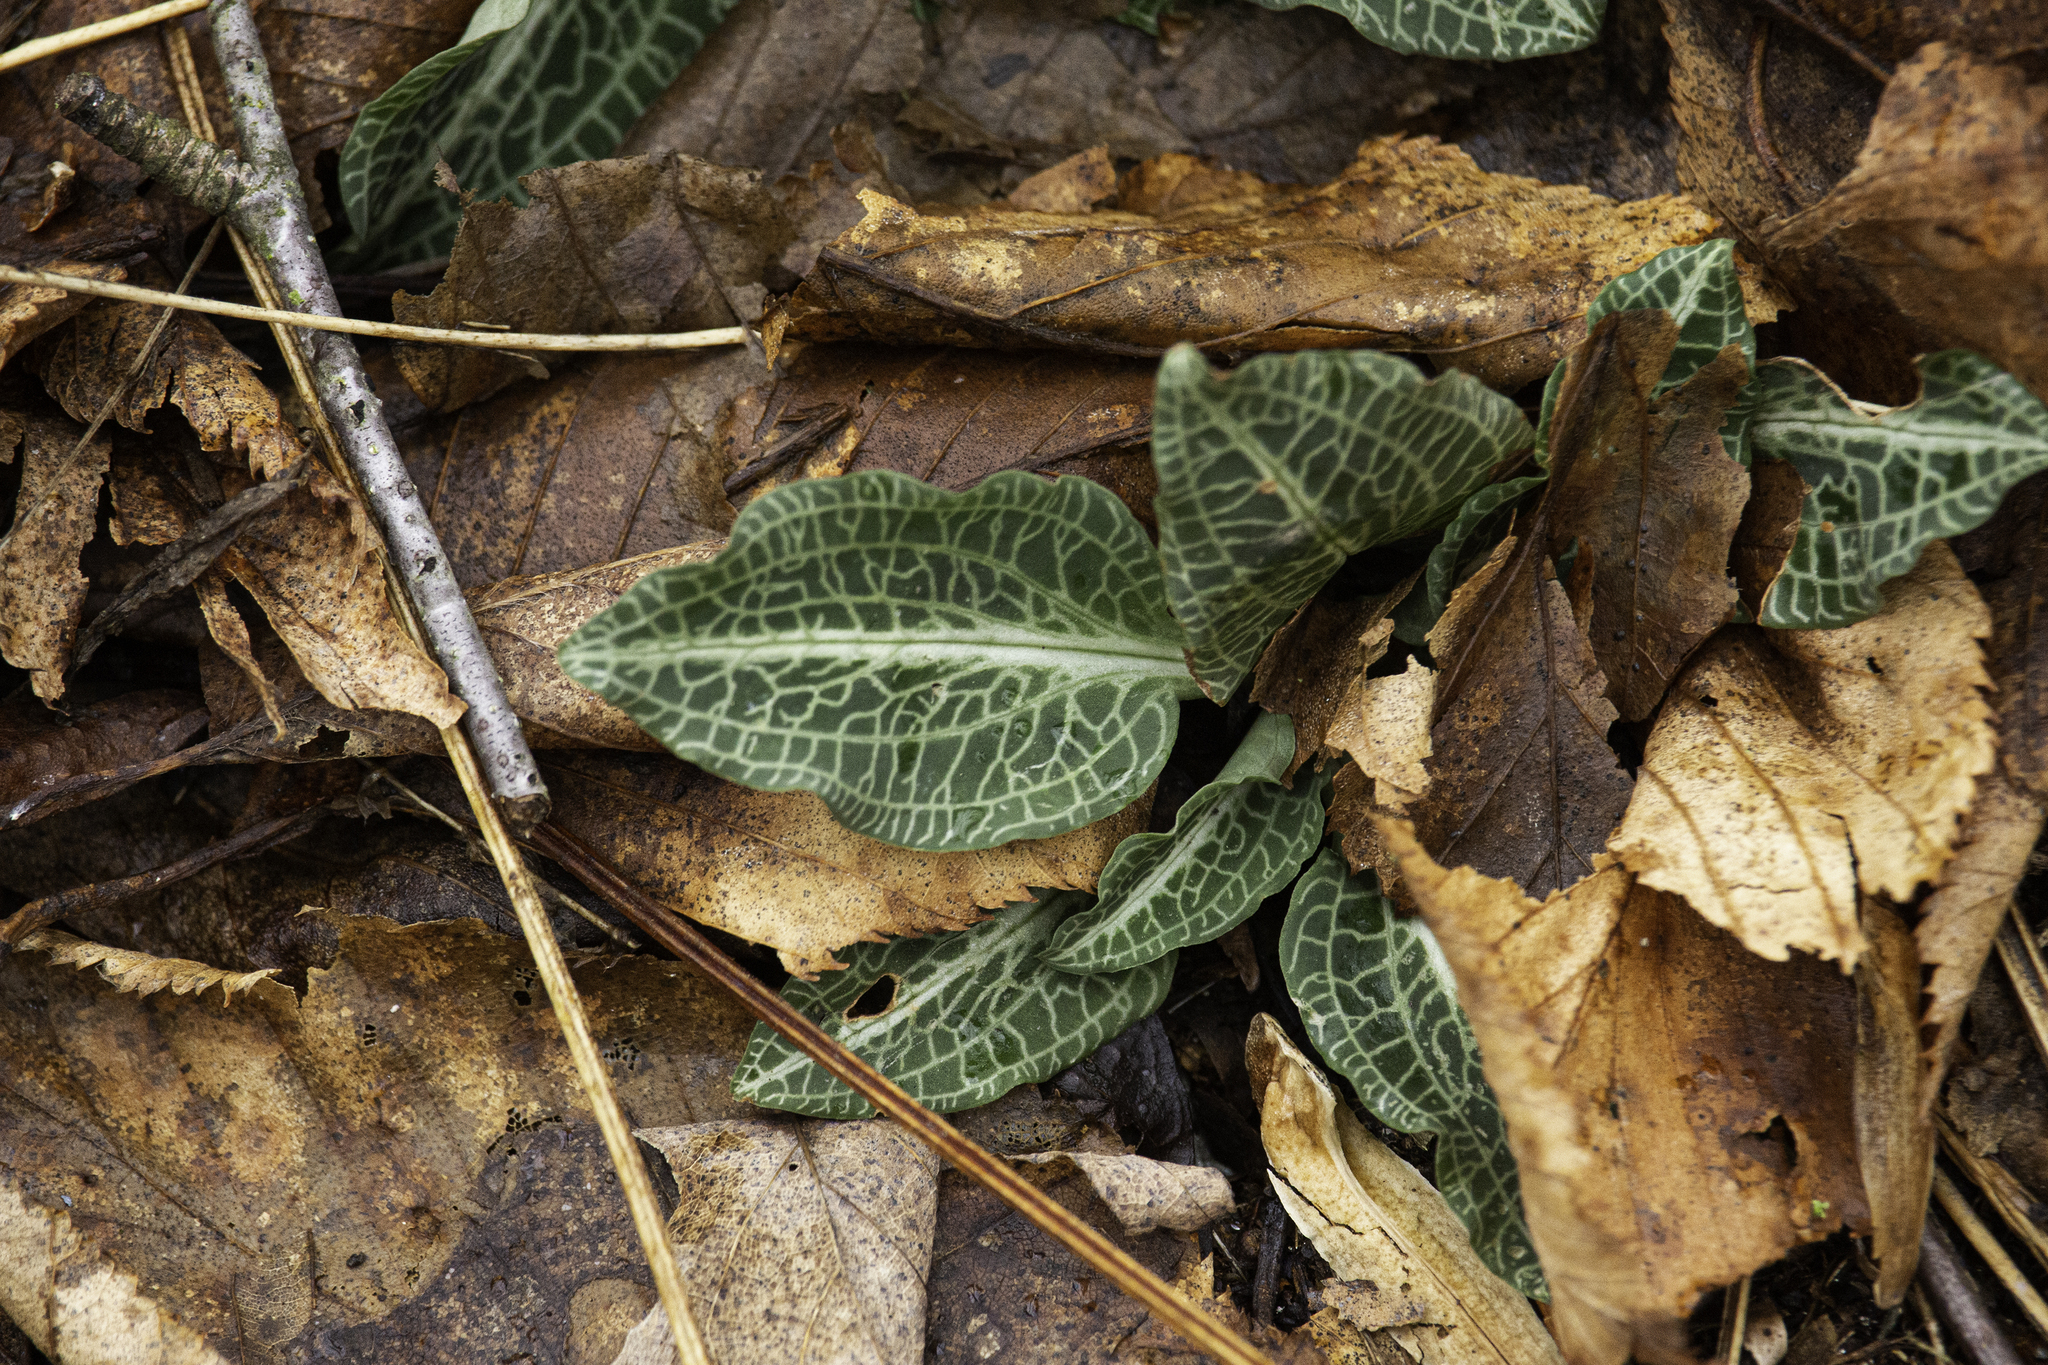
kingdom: Plantae
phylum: Tracheophyta
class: Liliopsida
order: Asparagales
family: Orchidaceae
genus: Goodyera
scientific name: Goodyera pubescens
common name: Downy rattlesnake-plantain
